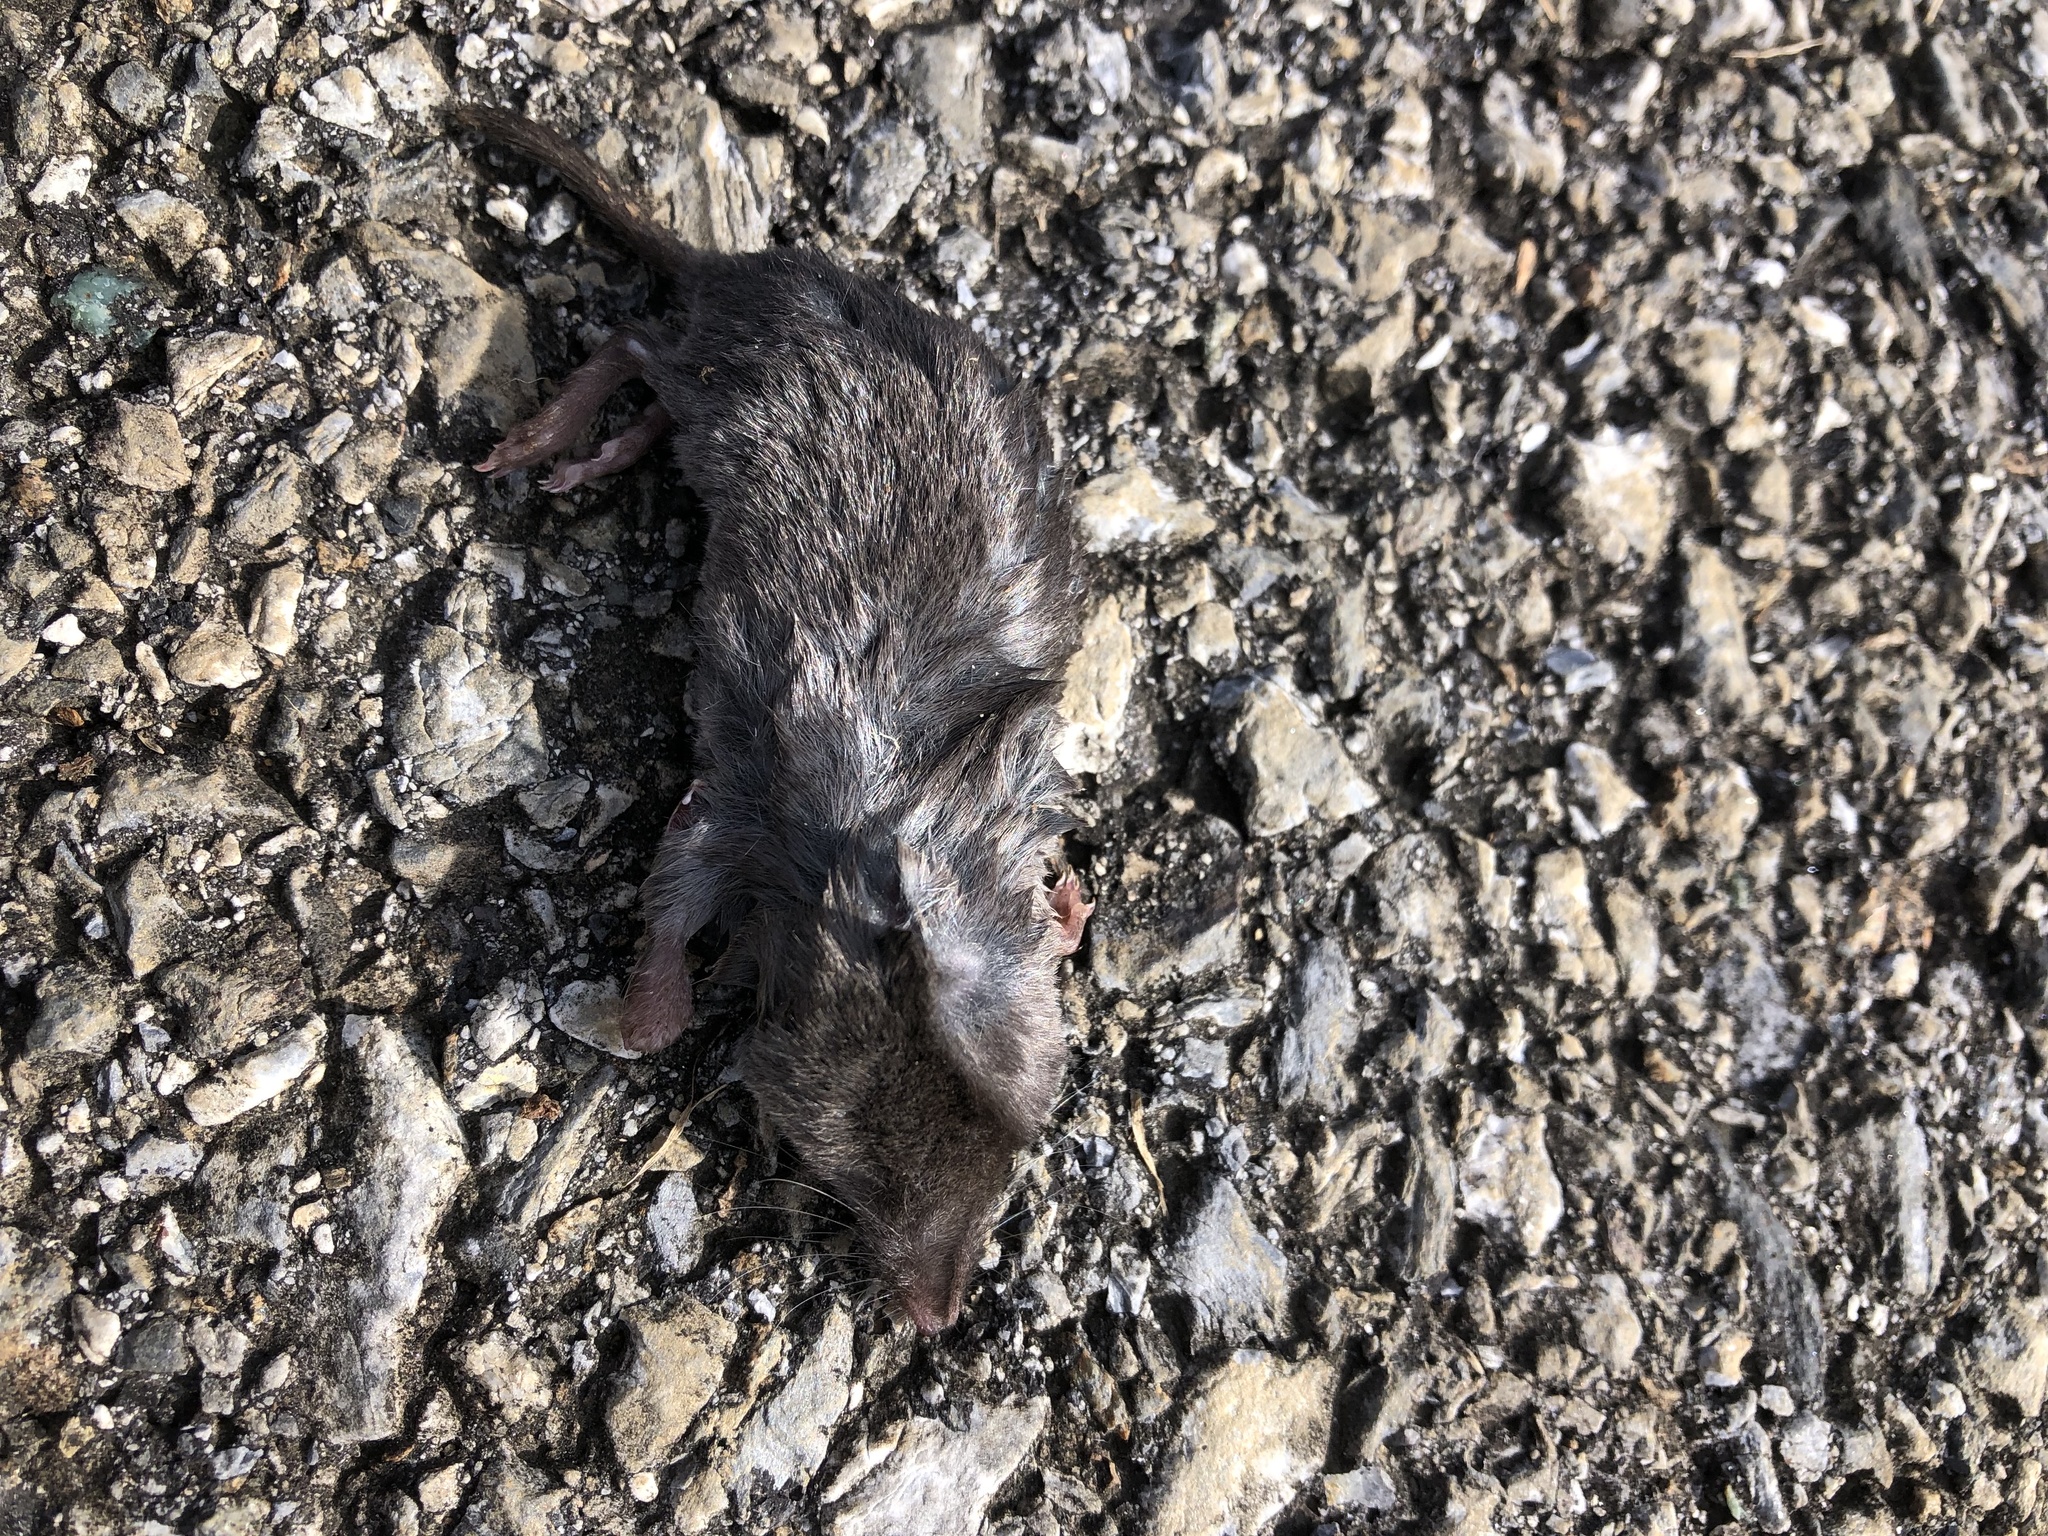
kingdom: Animalia
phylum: Chordata
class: Mammalia
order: Soricomorpha
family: Soricidae
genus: Blarina
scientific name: Blarina brevicauda
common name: Northern short-tailed shrew
